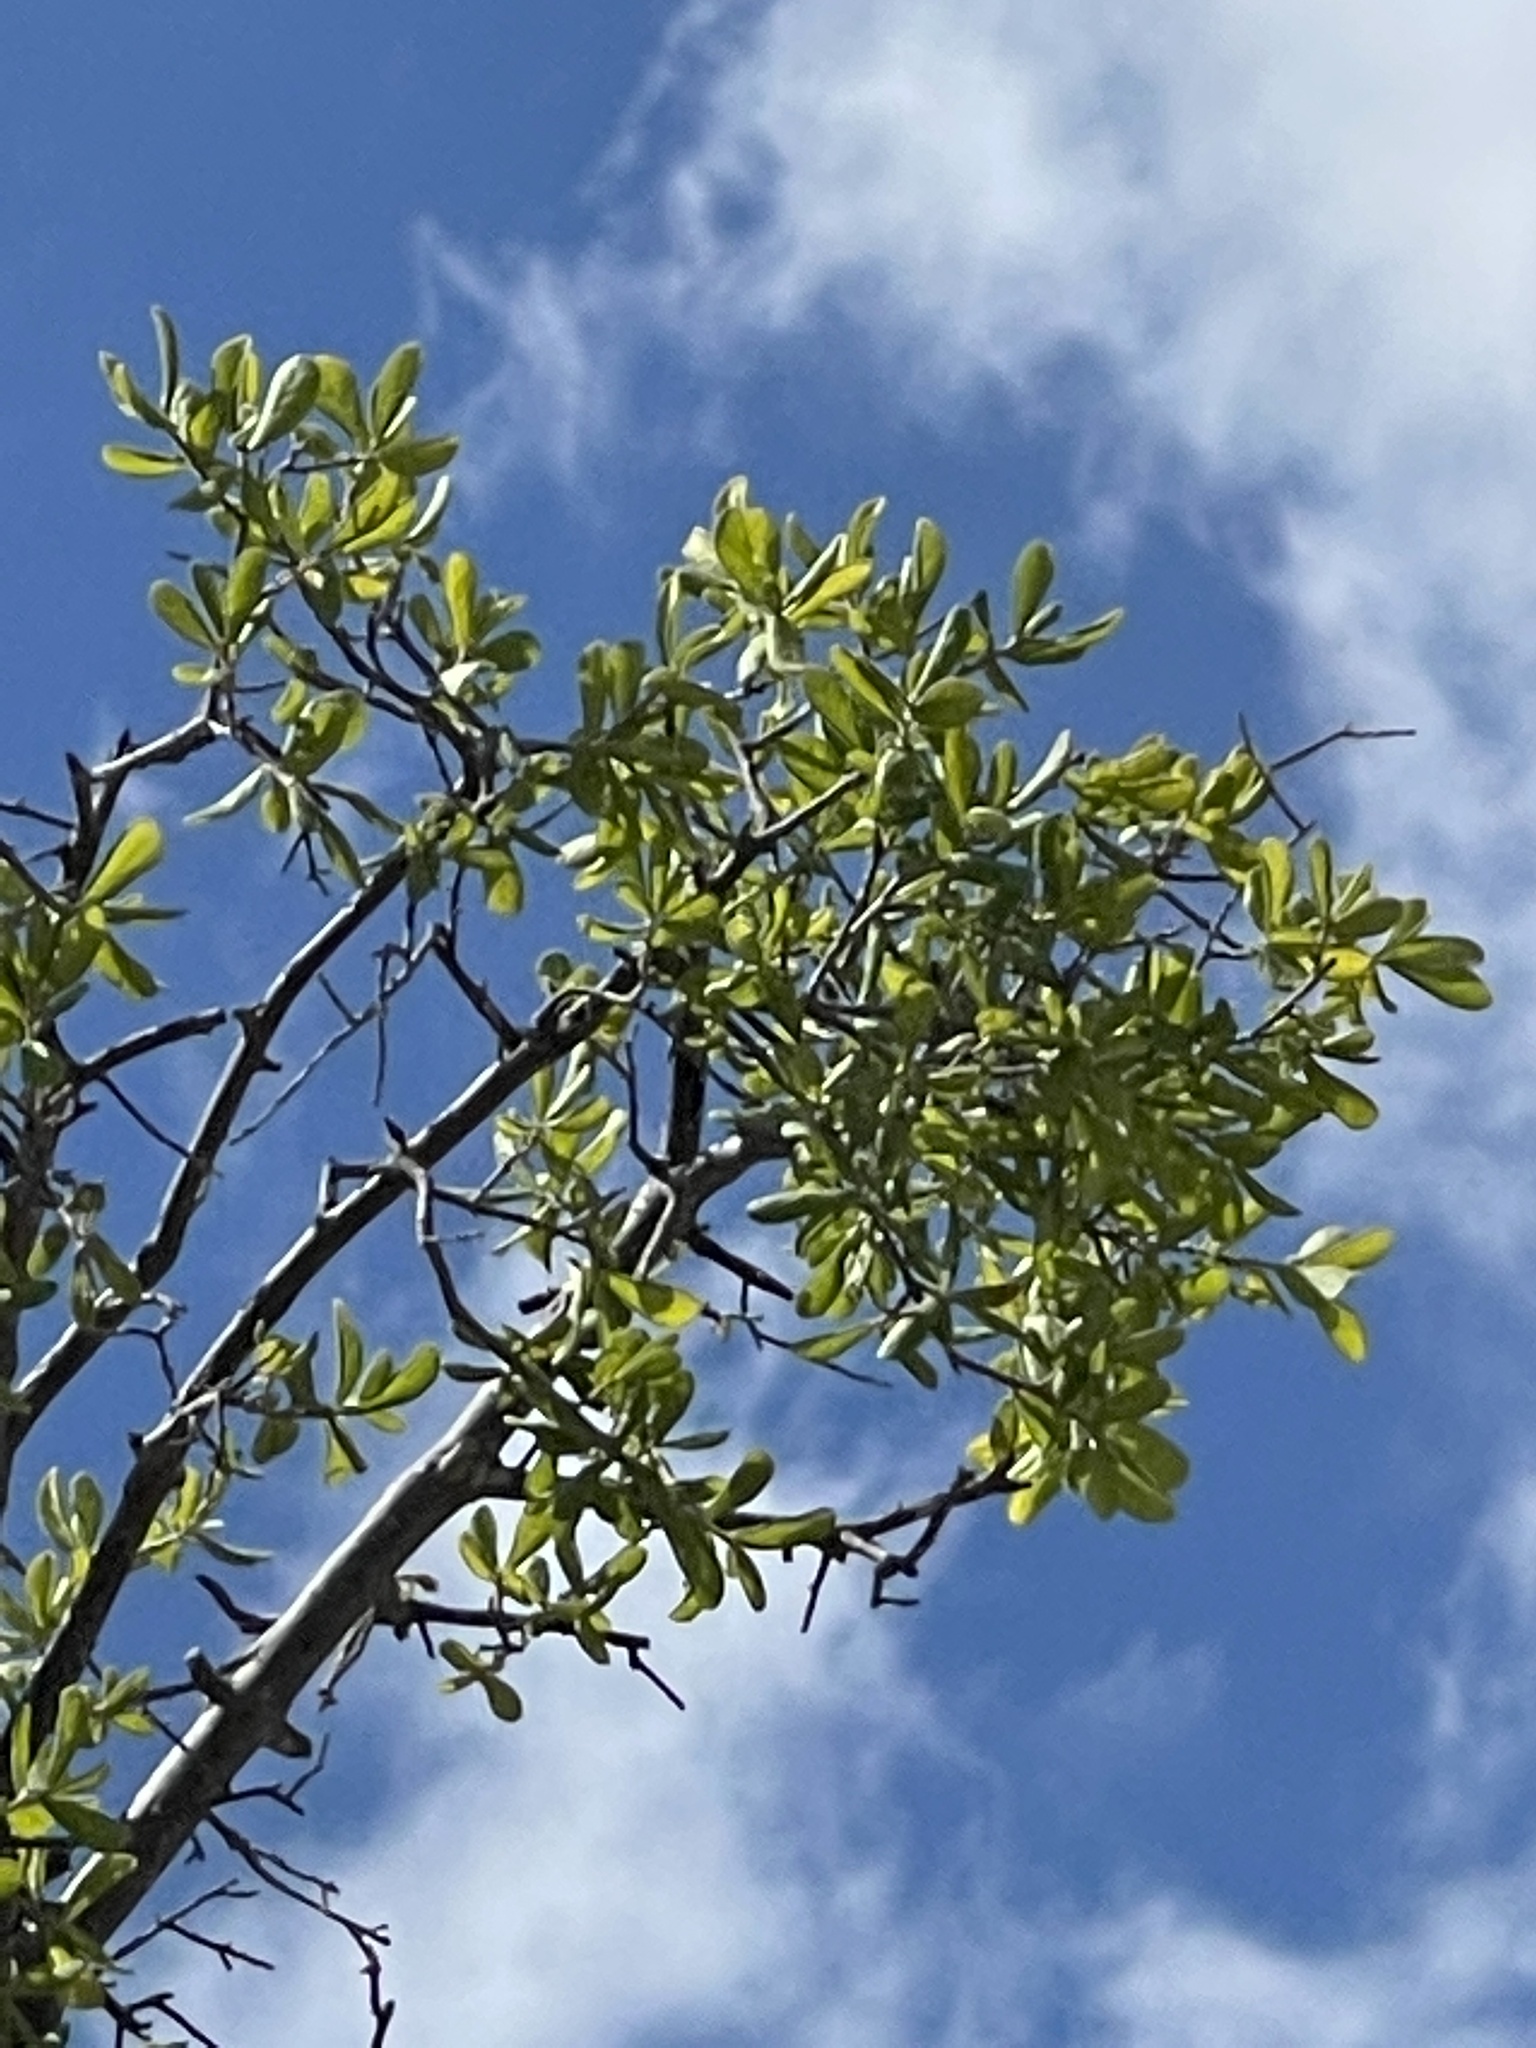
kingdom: Plantae
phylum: Tracheophyta
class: Magnoliopsida
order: Ericales
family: Ebenaceae
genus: Diospyros
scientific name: Diospyros texana
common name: Texas persimmon
